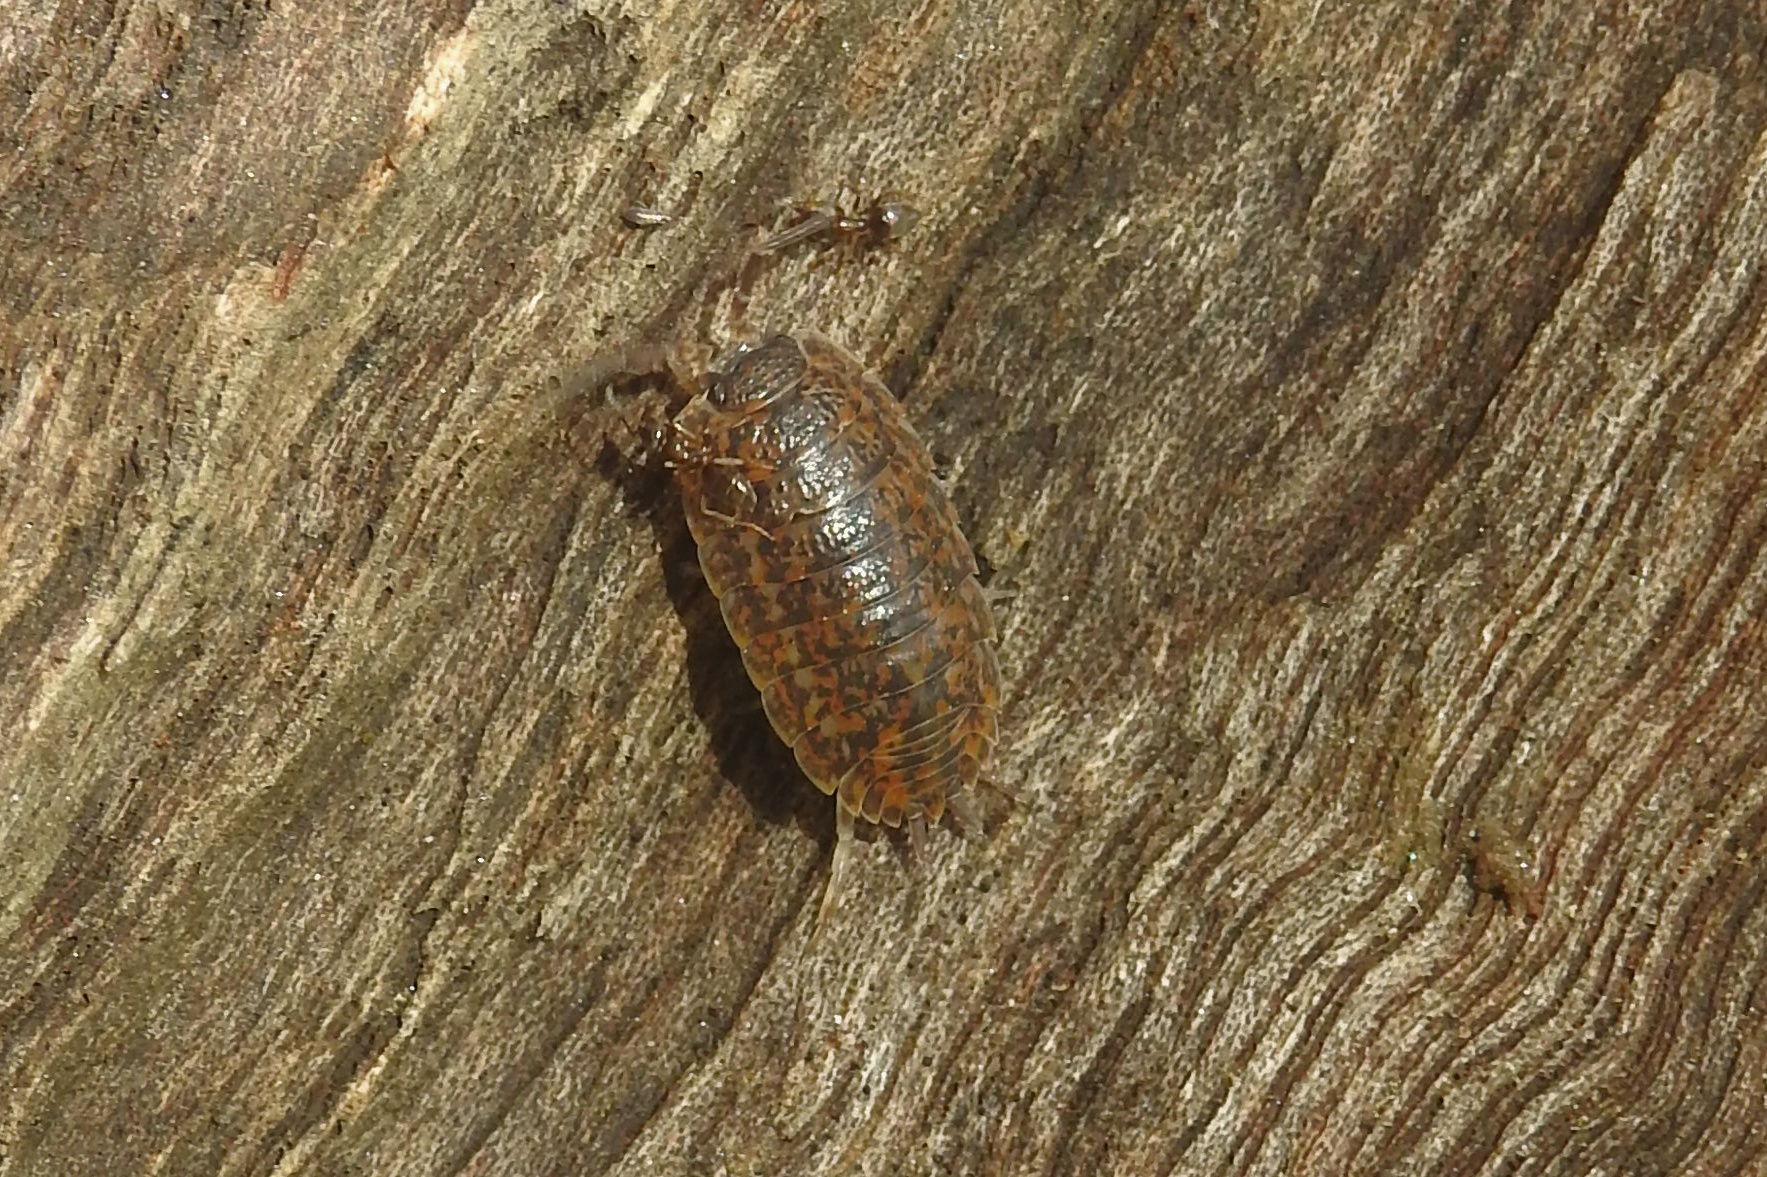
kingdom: Animalia
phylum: Arthropoda
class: Malacostraca
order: Isopoda
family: Trachelipodidae
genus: Trachelipus
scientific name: Trachelipus rathkii
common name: Isopod
